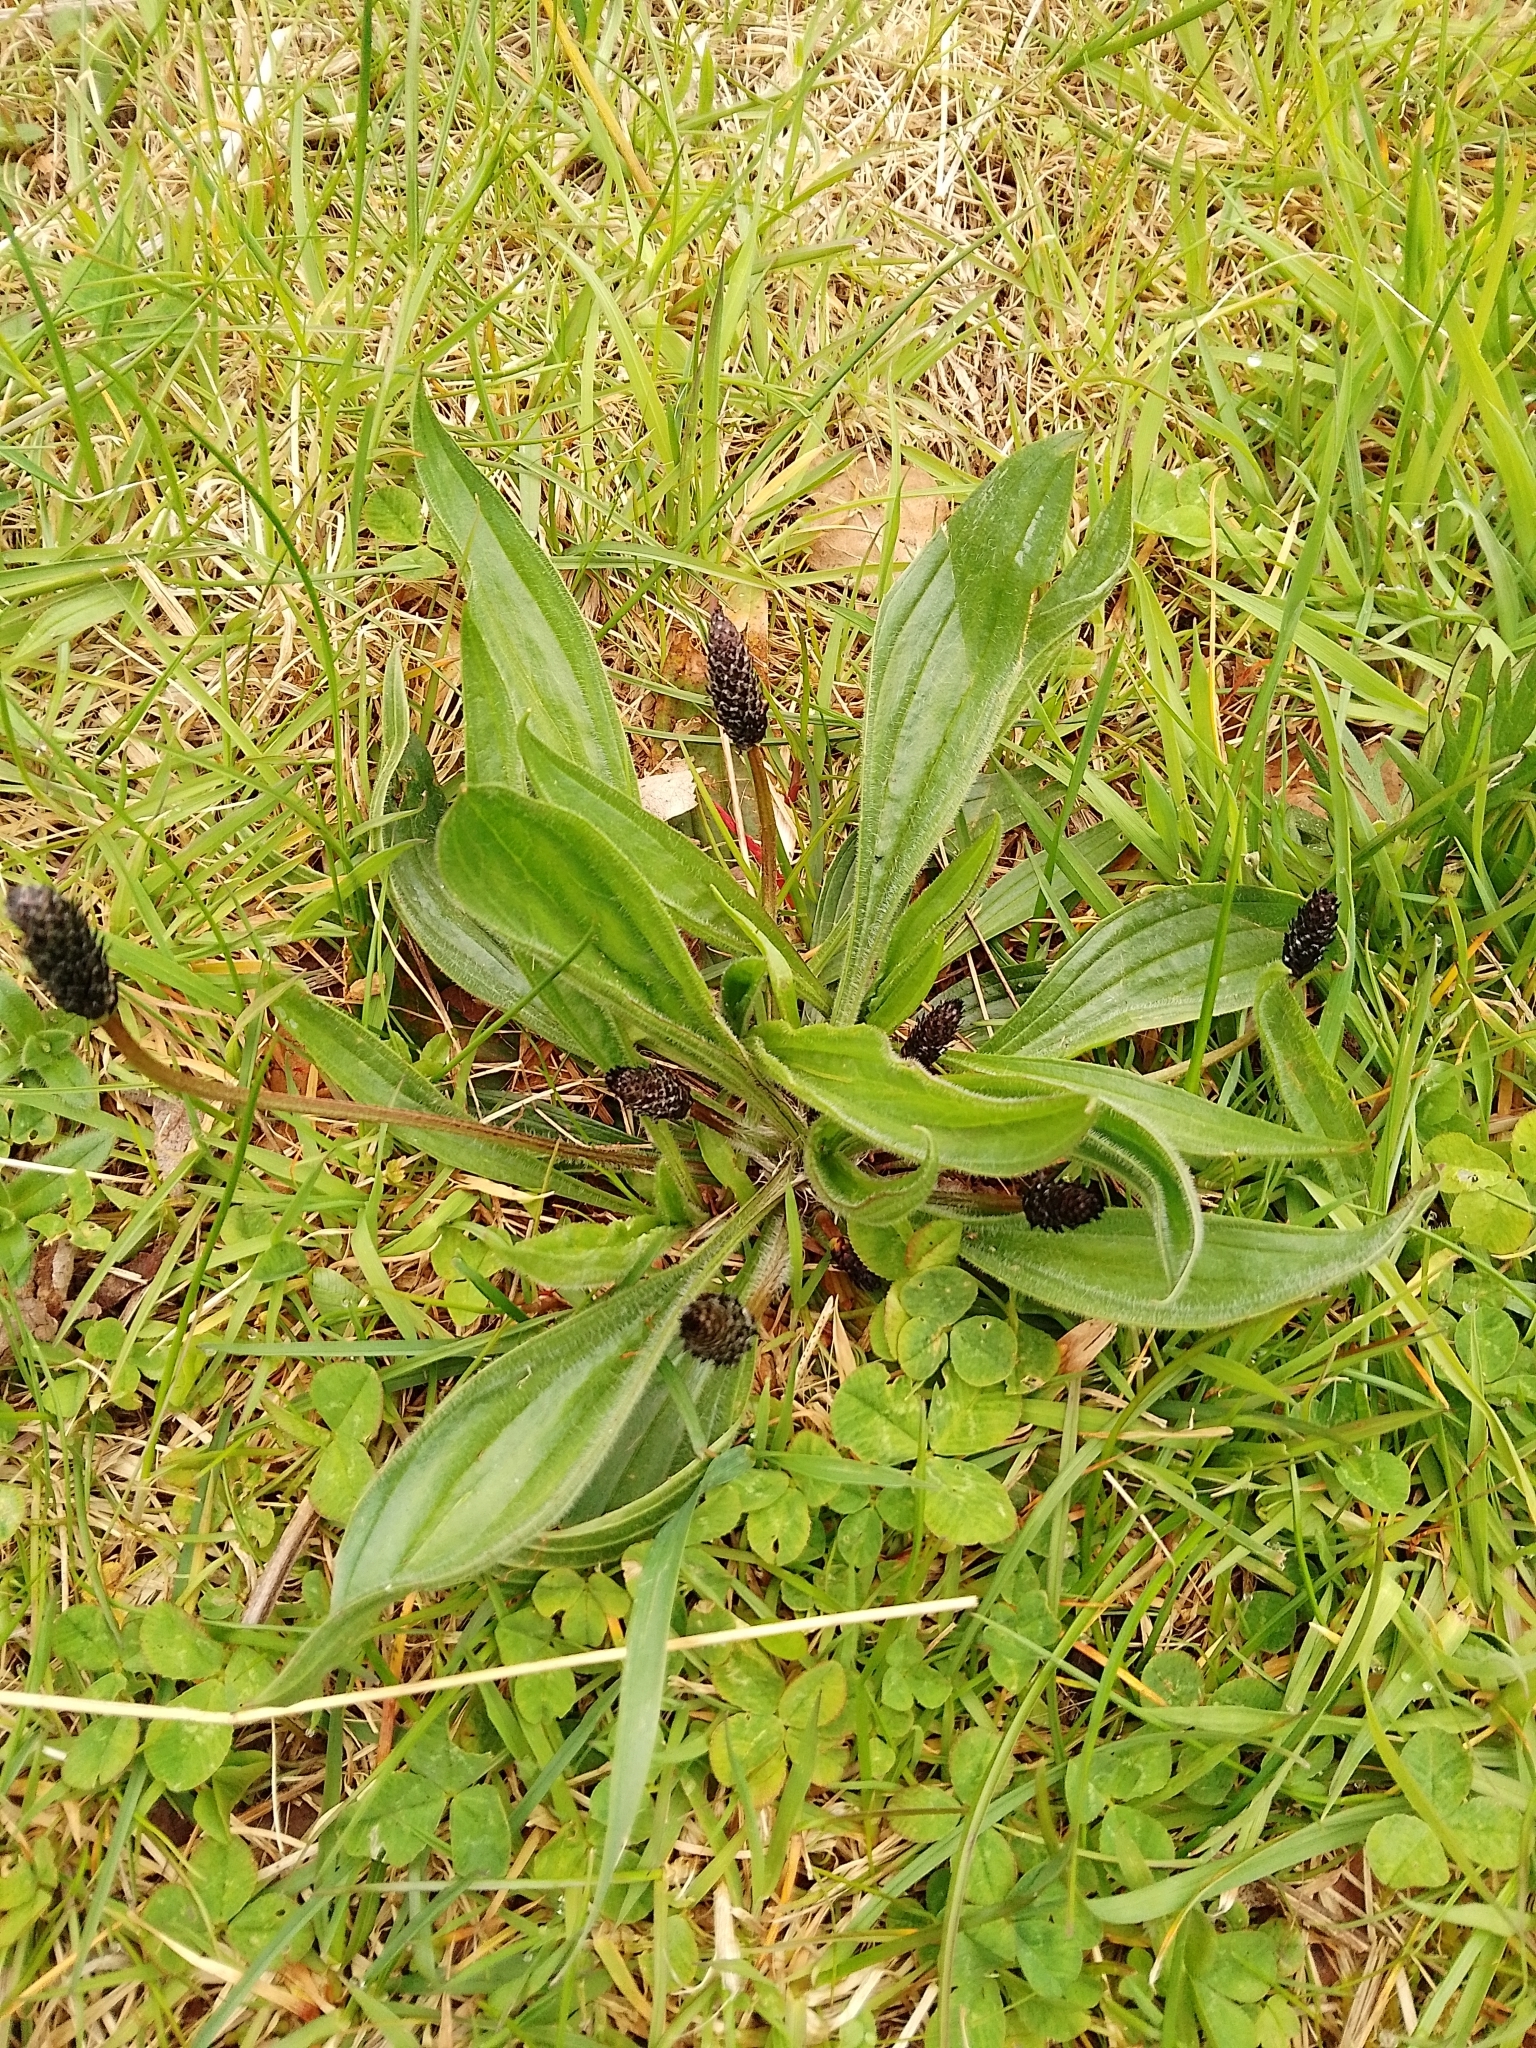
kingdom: Plantae
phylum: Tracheophyta
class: Magnoliopsida
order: Lamiales
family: Plantaginaceae
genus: Plantago
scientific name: Plantago lanceolata
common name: Ribwort plantain
